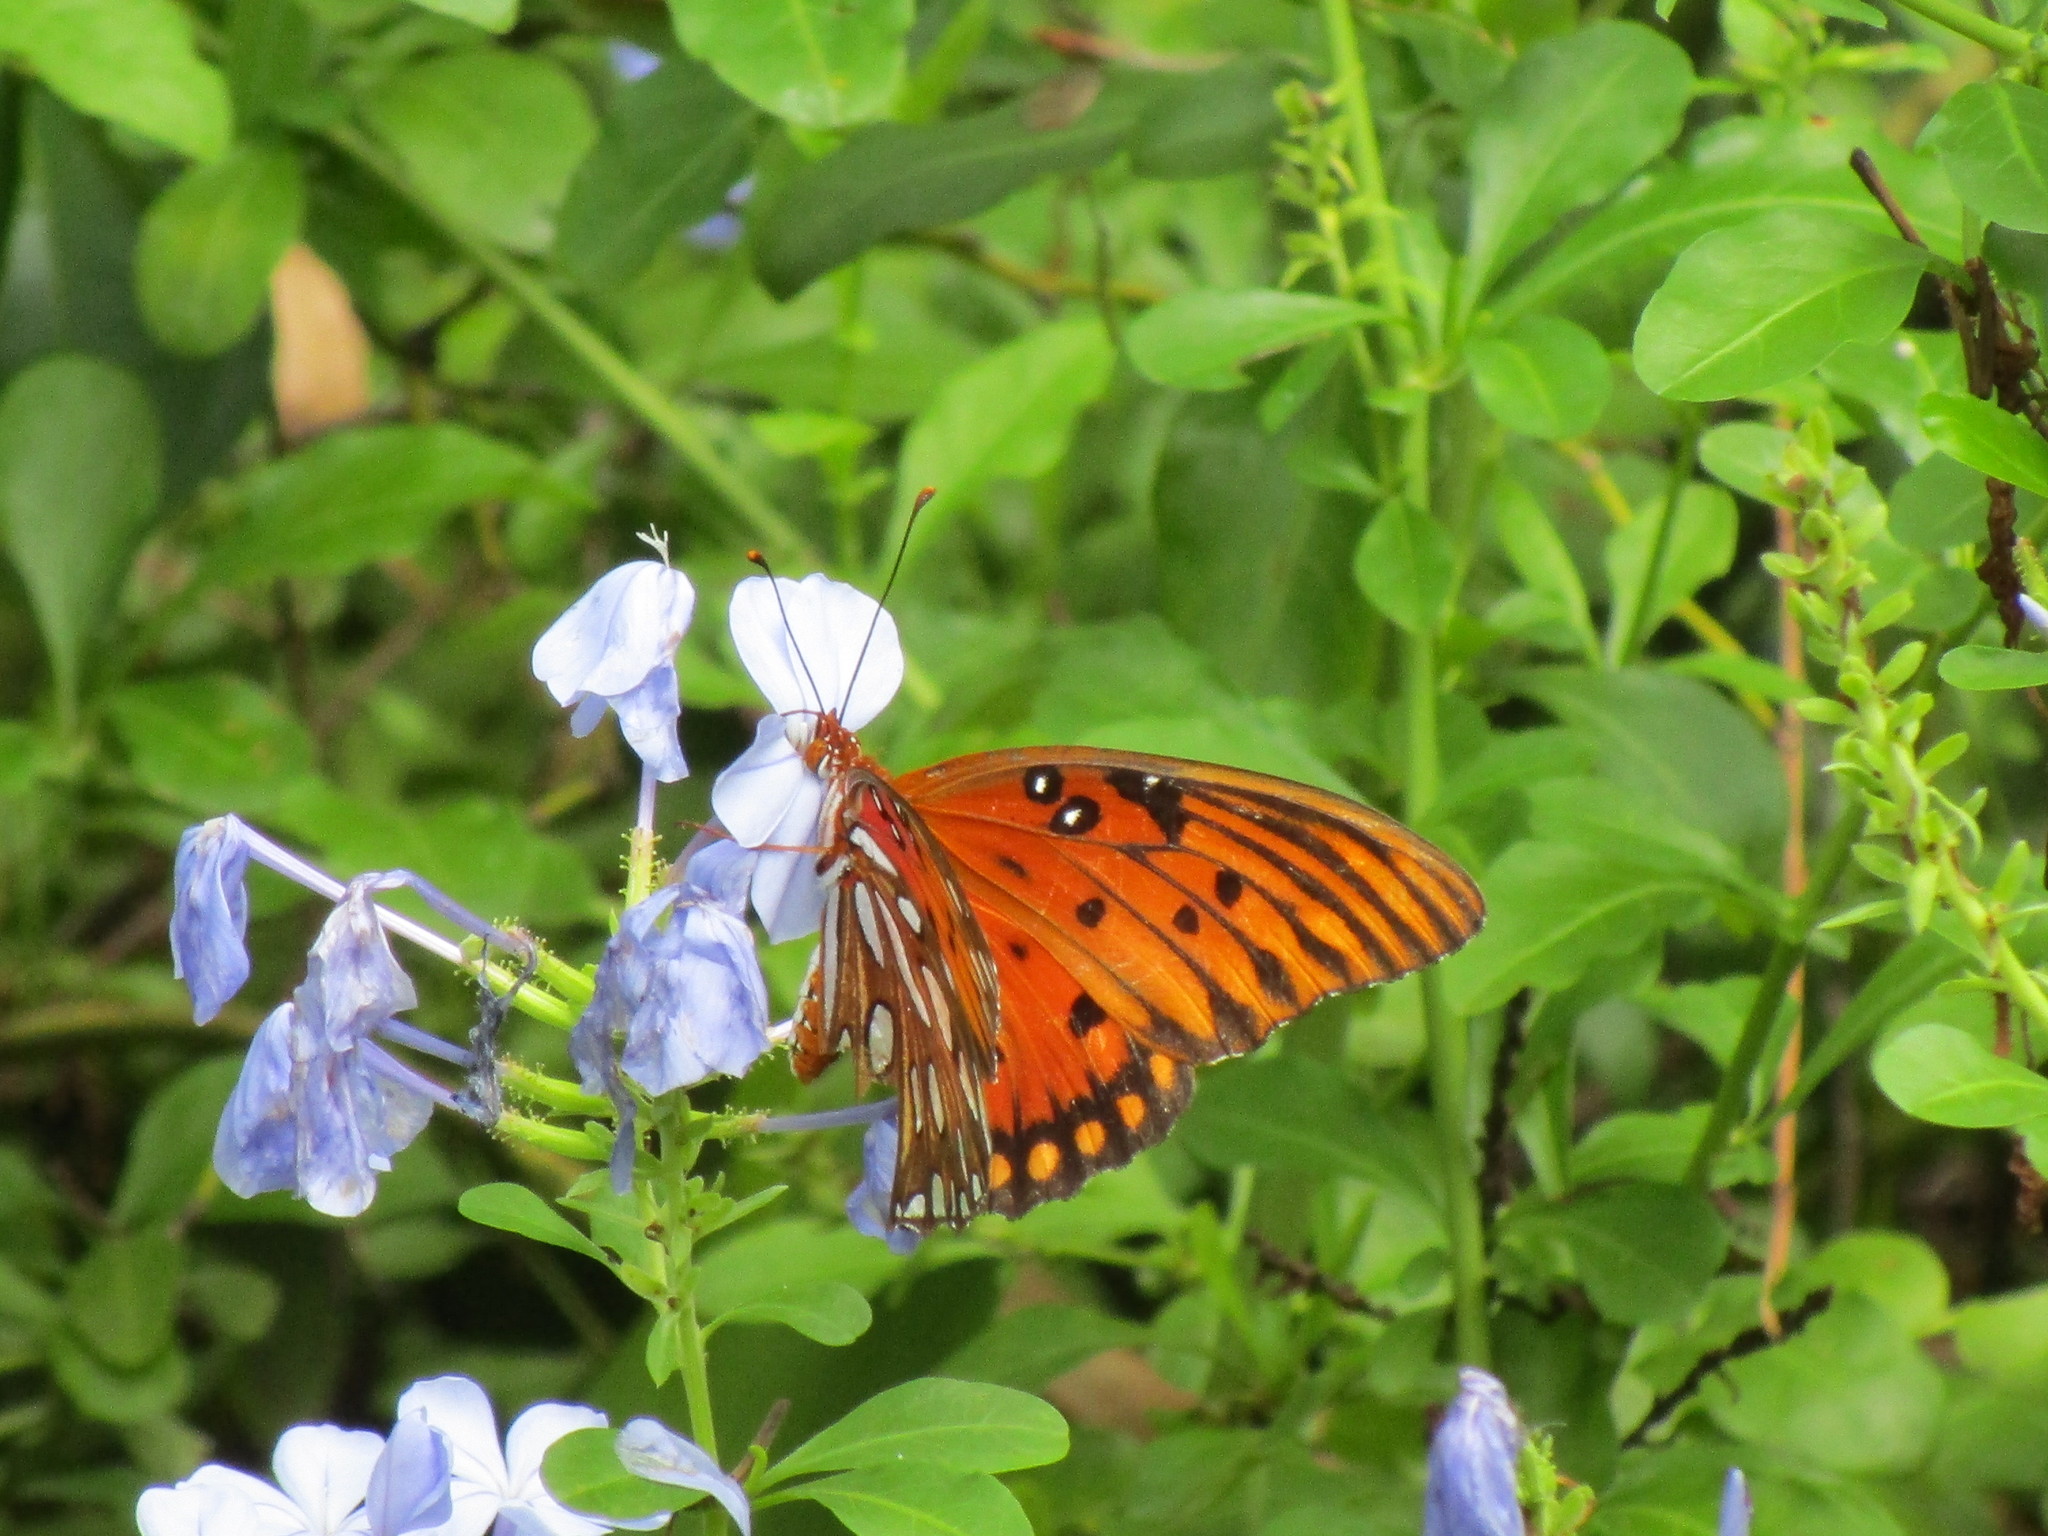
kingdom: Animalia
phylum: Arthropoda
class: Insecta
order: Lepidoptera
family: Nymphalidae
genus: Dione
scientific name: Dione vanillae
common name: Gulf fritillary
